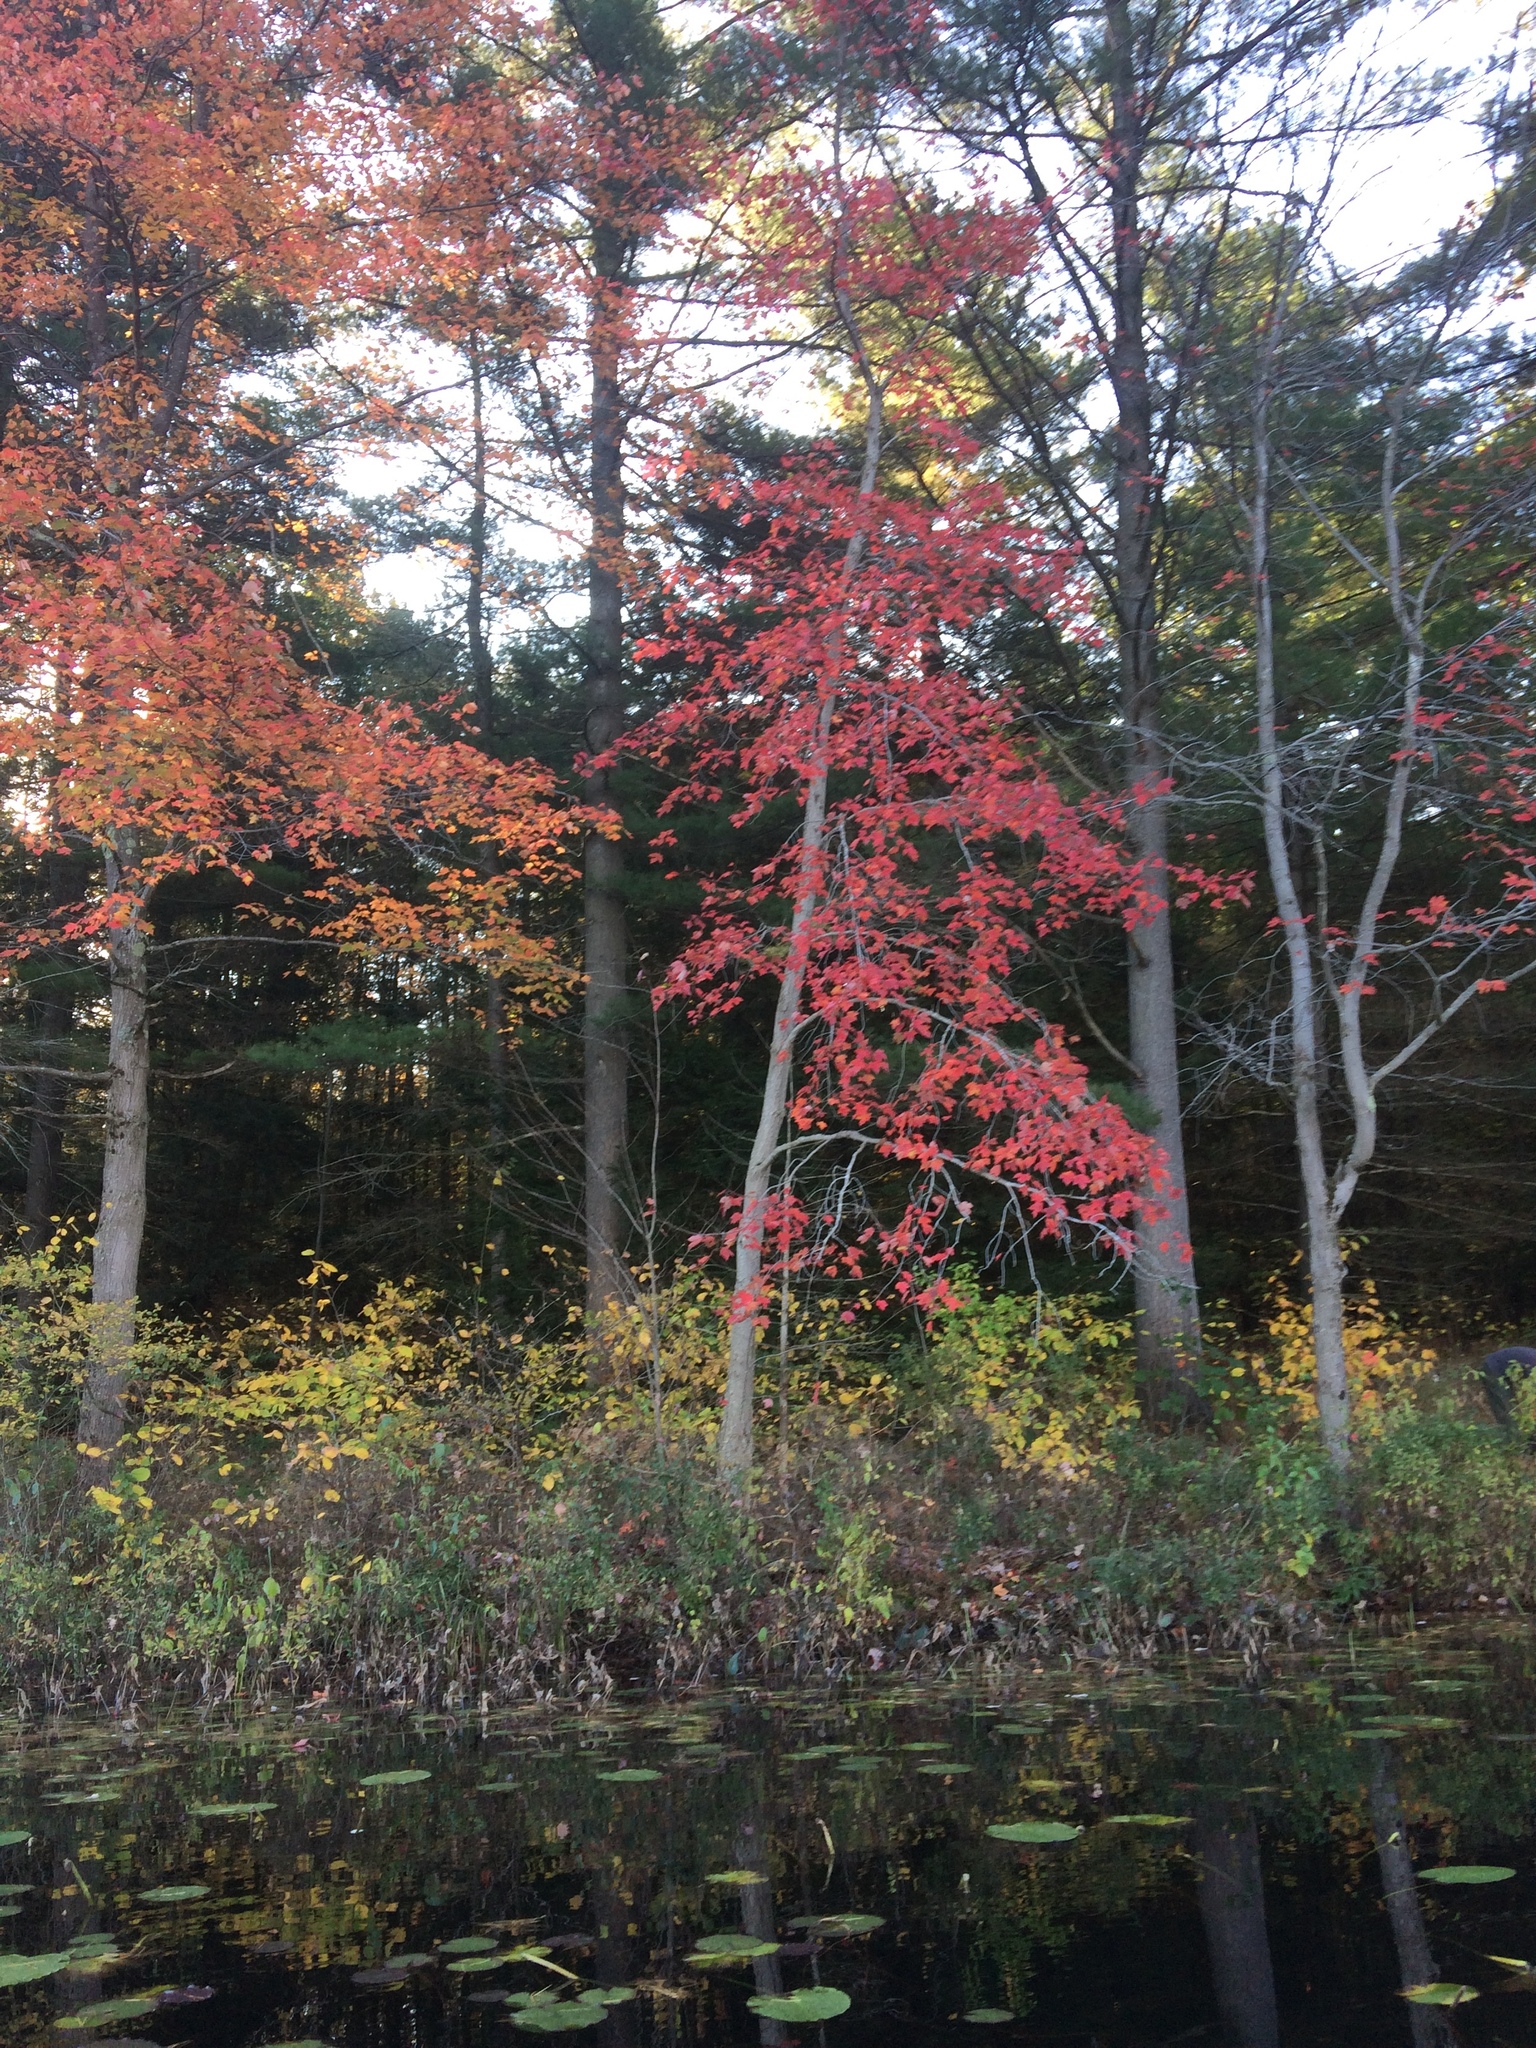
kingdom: Plantae
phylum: Tracheophyta
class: Magnoliopsida
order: Sapindales
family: Sapindaceae
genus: Acer
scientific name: Acer rubrum
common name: Red maple
